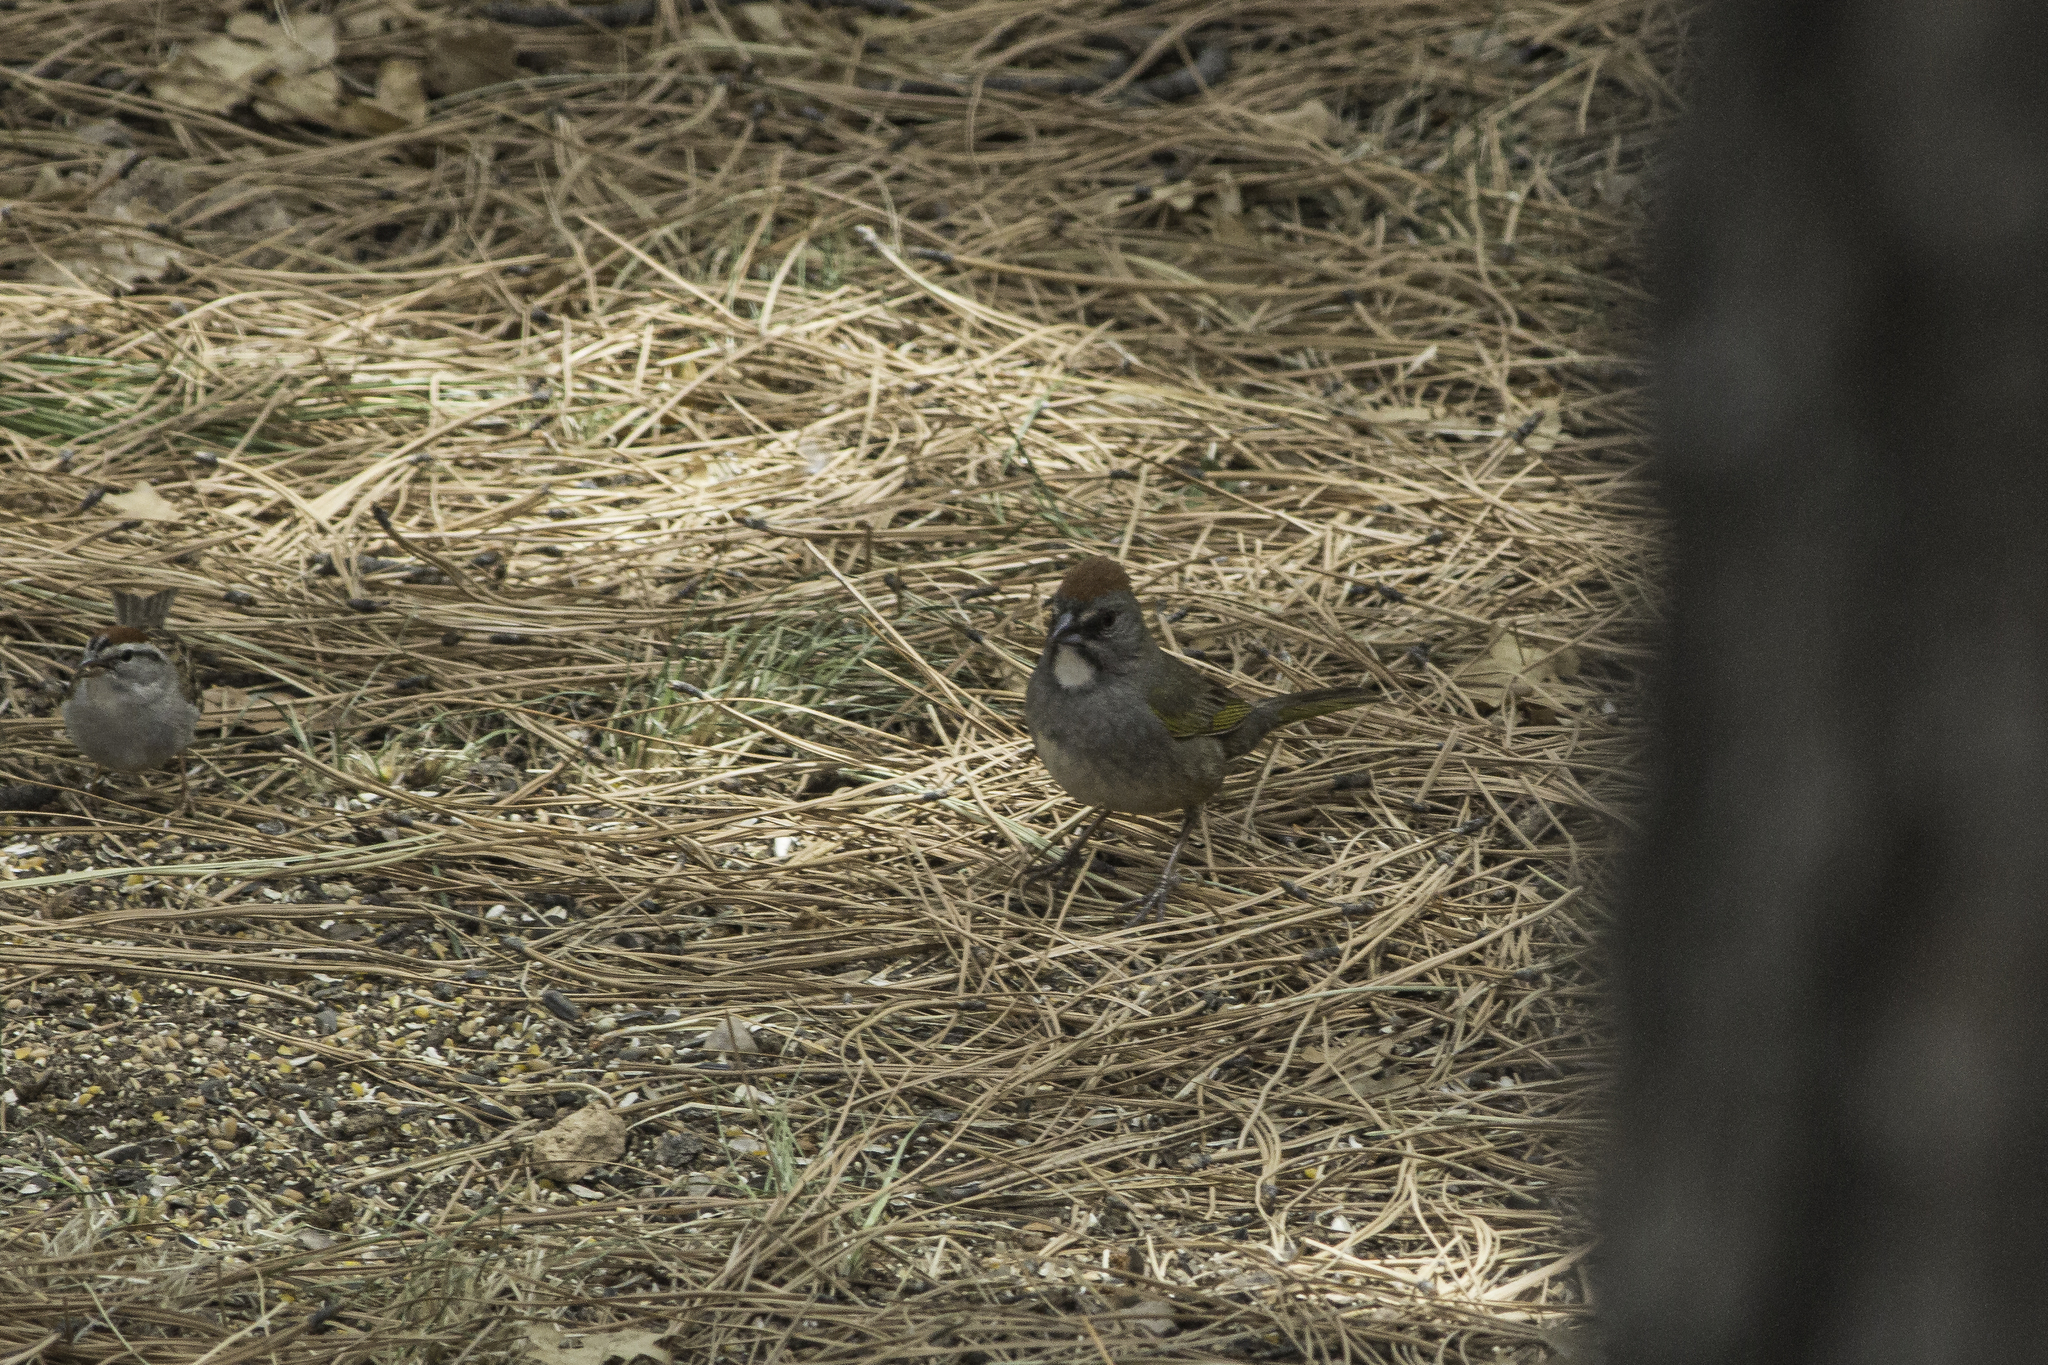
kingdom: Animalia
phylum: Chordata
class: Aves
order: Passeriformes
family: Passerellidae
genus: Pipilo
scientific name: Pipilo chlorurus
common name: Green-tailed towhee
